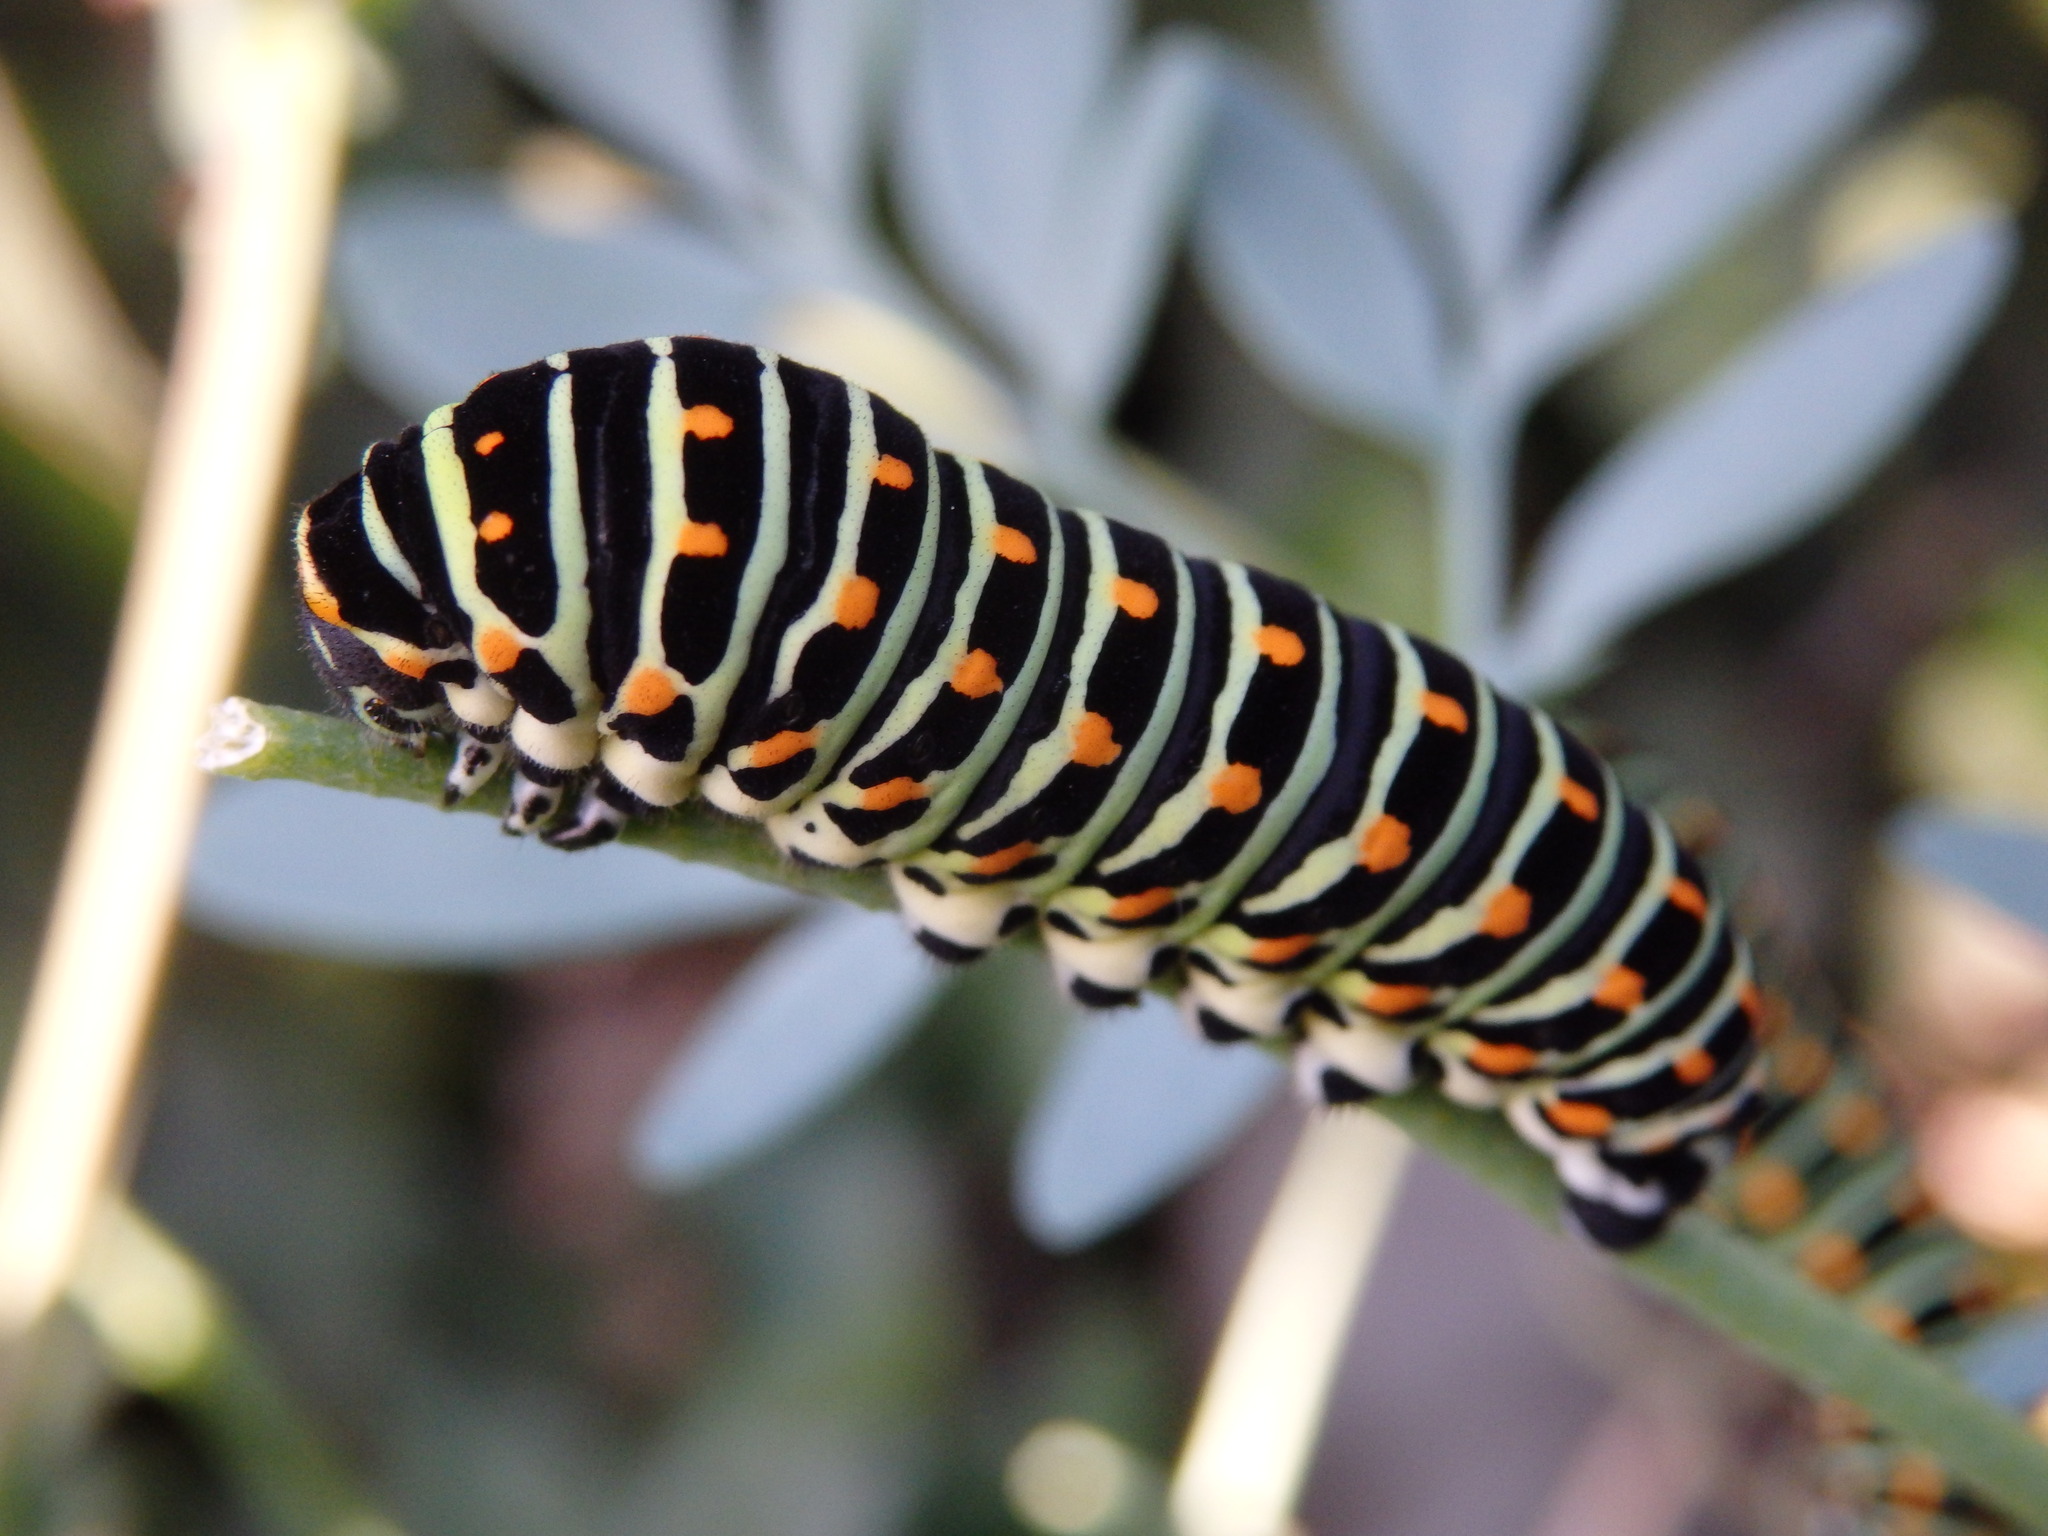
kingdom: Animalia
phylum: Arthropoda
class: Insecta
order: Lepidoptera
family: Papilionidae
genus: Papilio
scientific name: Papilio machaon
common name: Swallowtail
